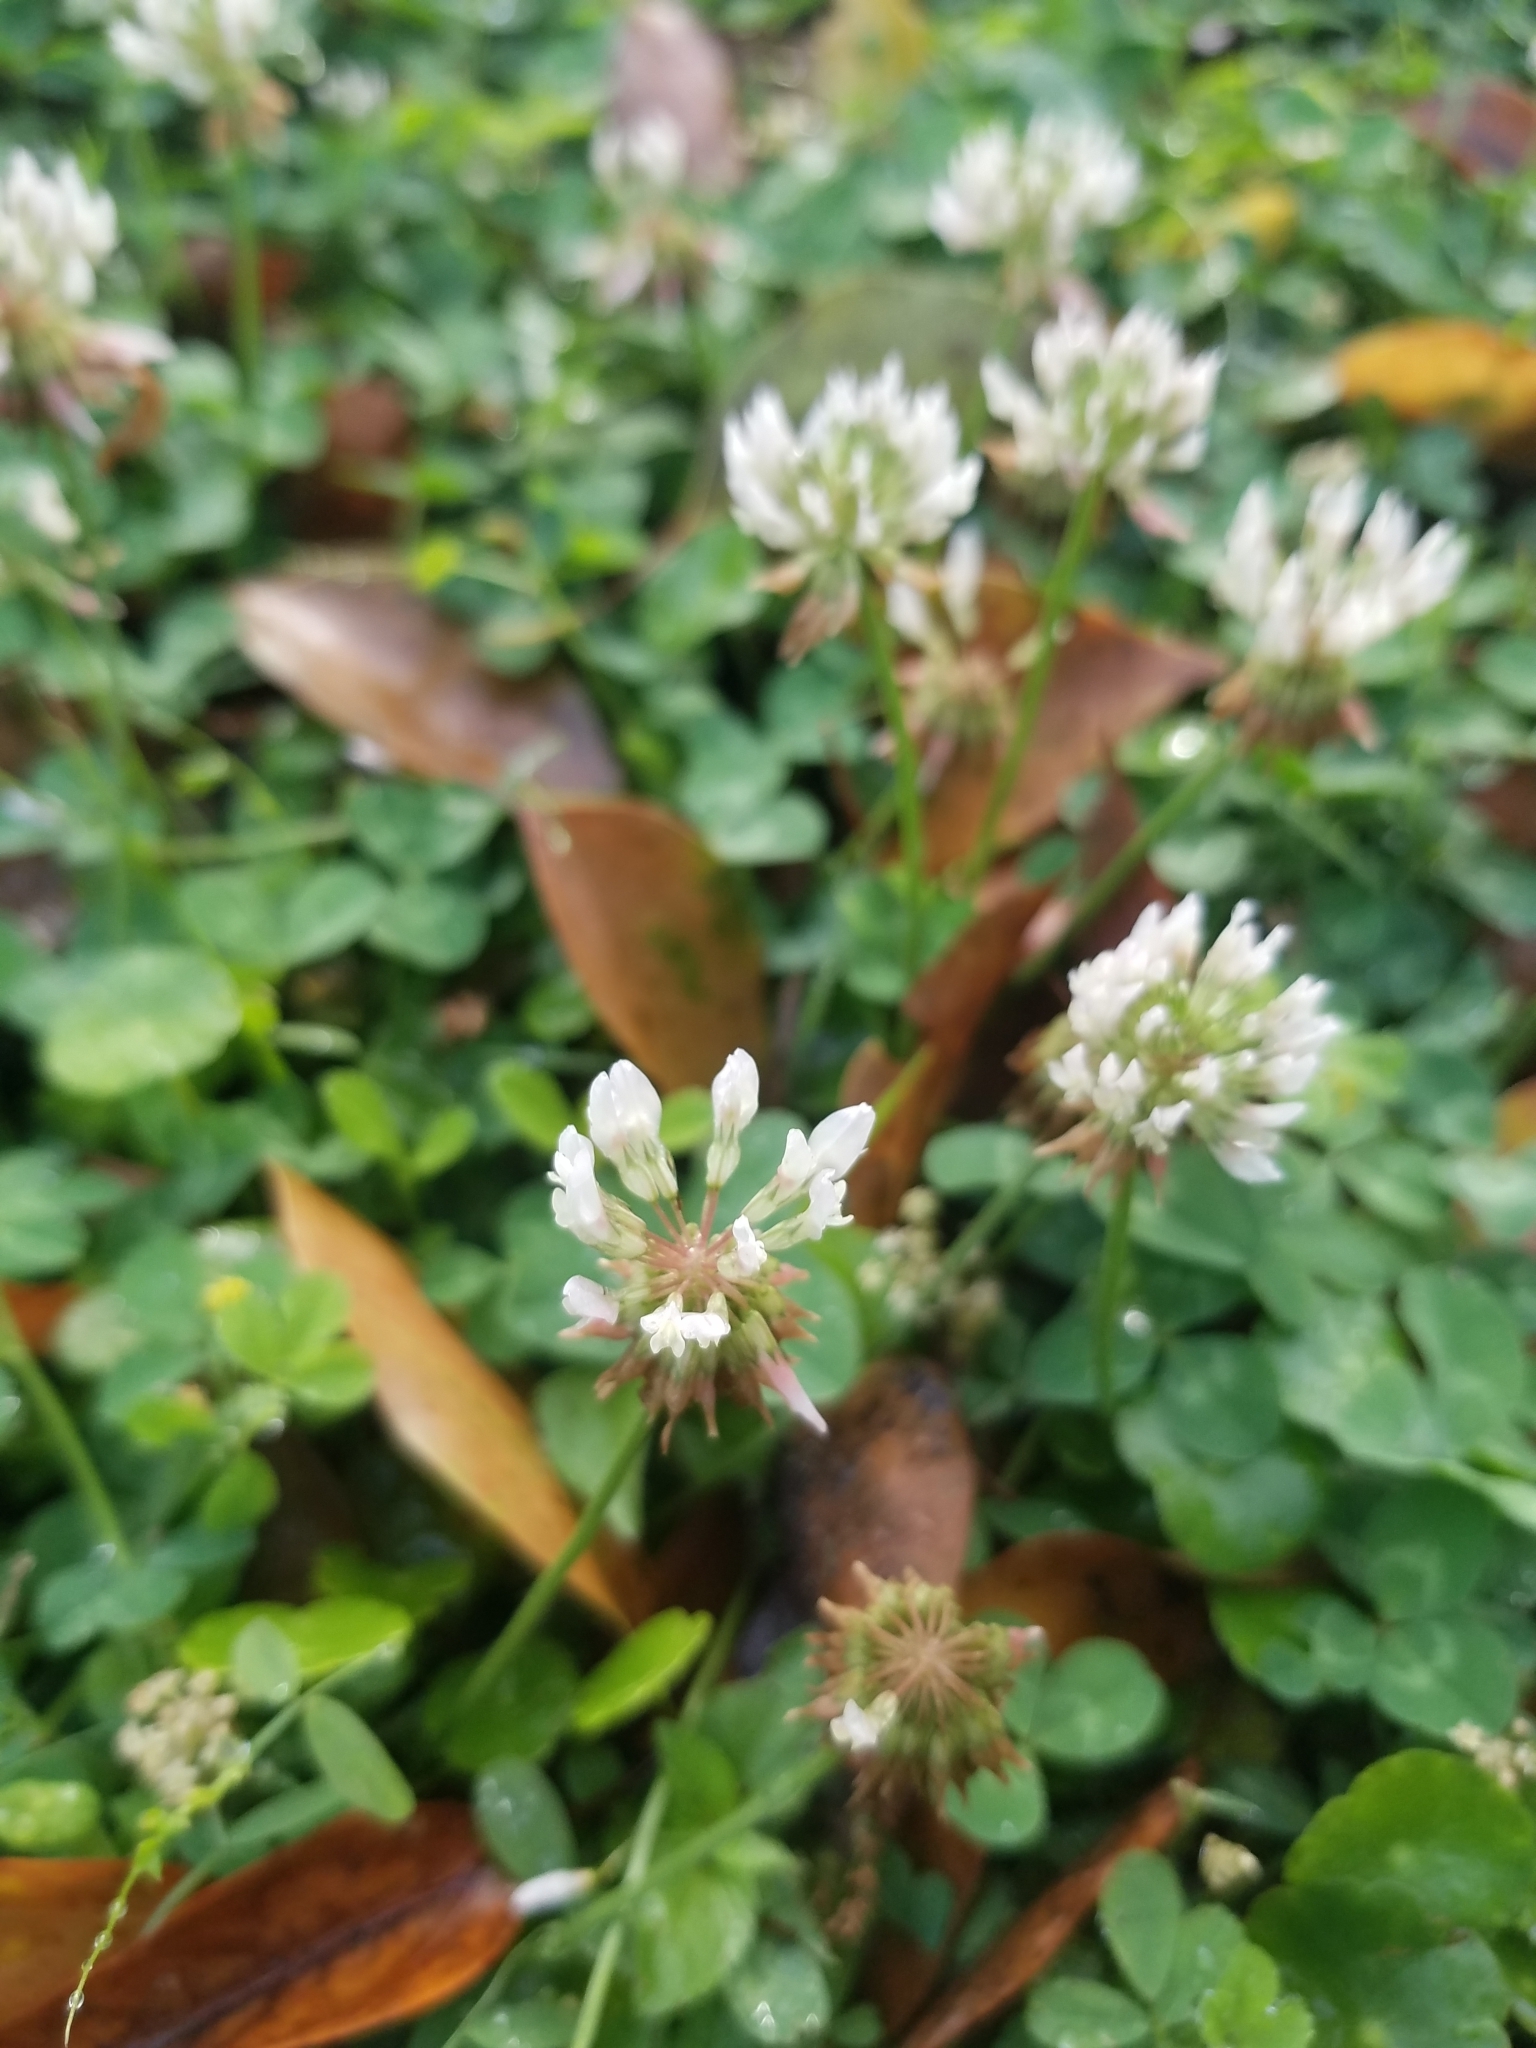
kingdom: Plantae
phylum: Tracheophyta
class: Magnoliopsida
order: Fabales
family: Fabaceae
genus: Trifolium
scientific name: Trifolium repens
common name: White clover
